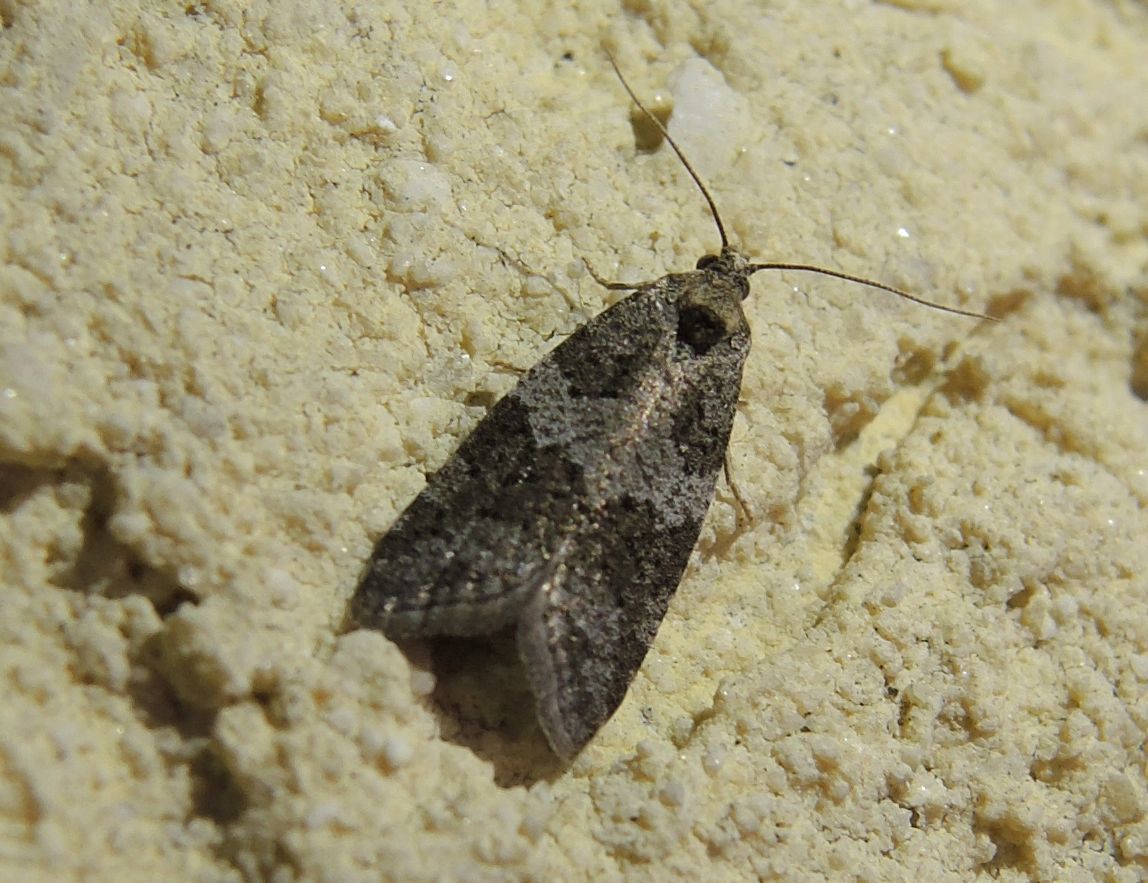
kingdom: Animalia
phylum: Arthropoda
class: Insecta
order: Lepidoptera
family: Tortricidae
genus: Cnephasia
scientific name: Cnephasia
